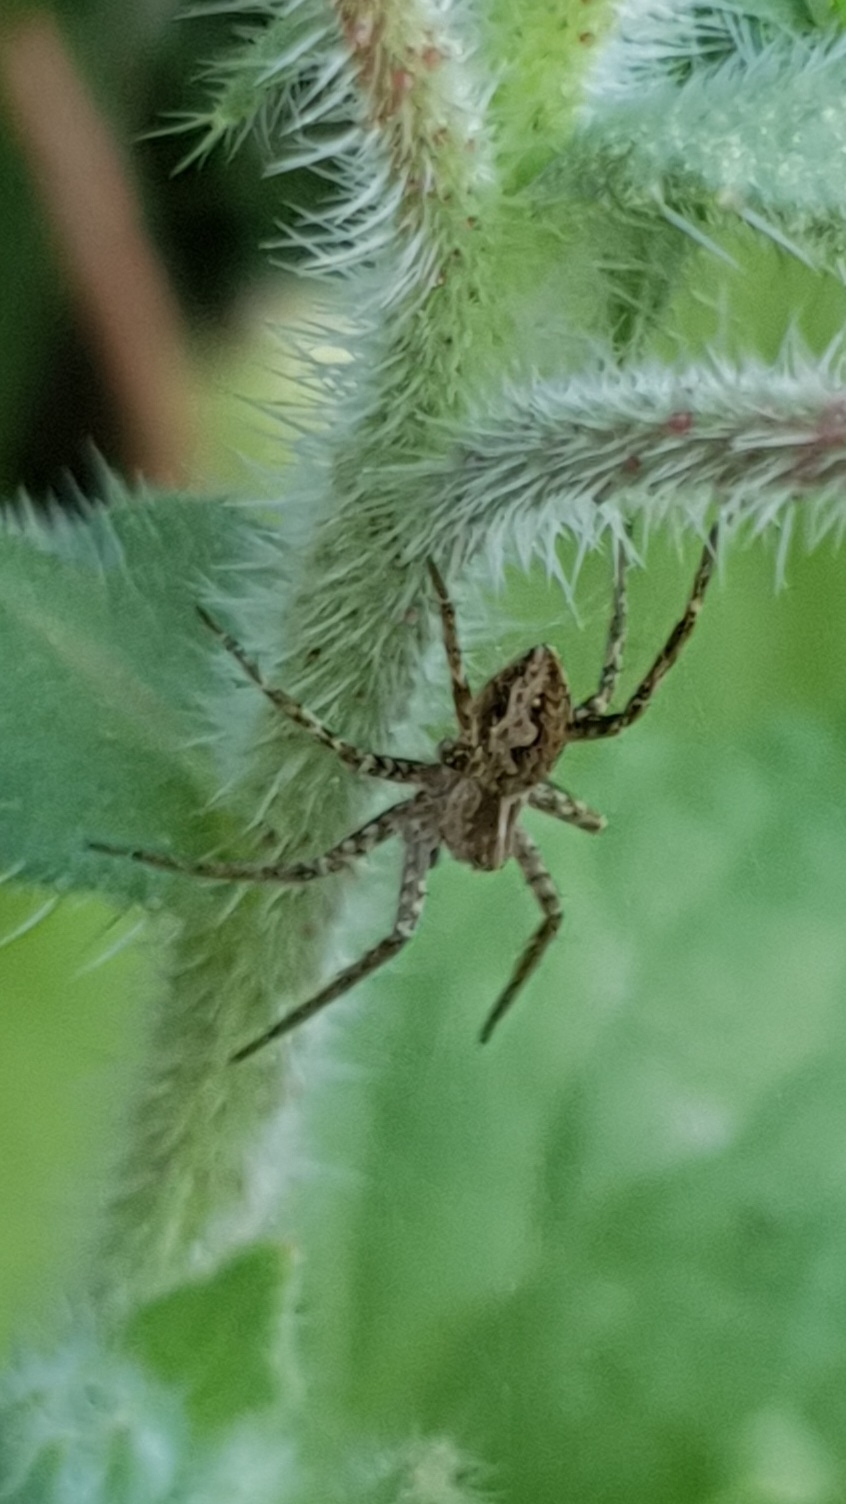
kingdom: Animalia
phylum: Arthropoda
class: Arachnida
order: Araneae
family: Pisauridae
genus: Pisaura
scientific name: Pisaura mirabilis
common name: Tent spider
